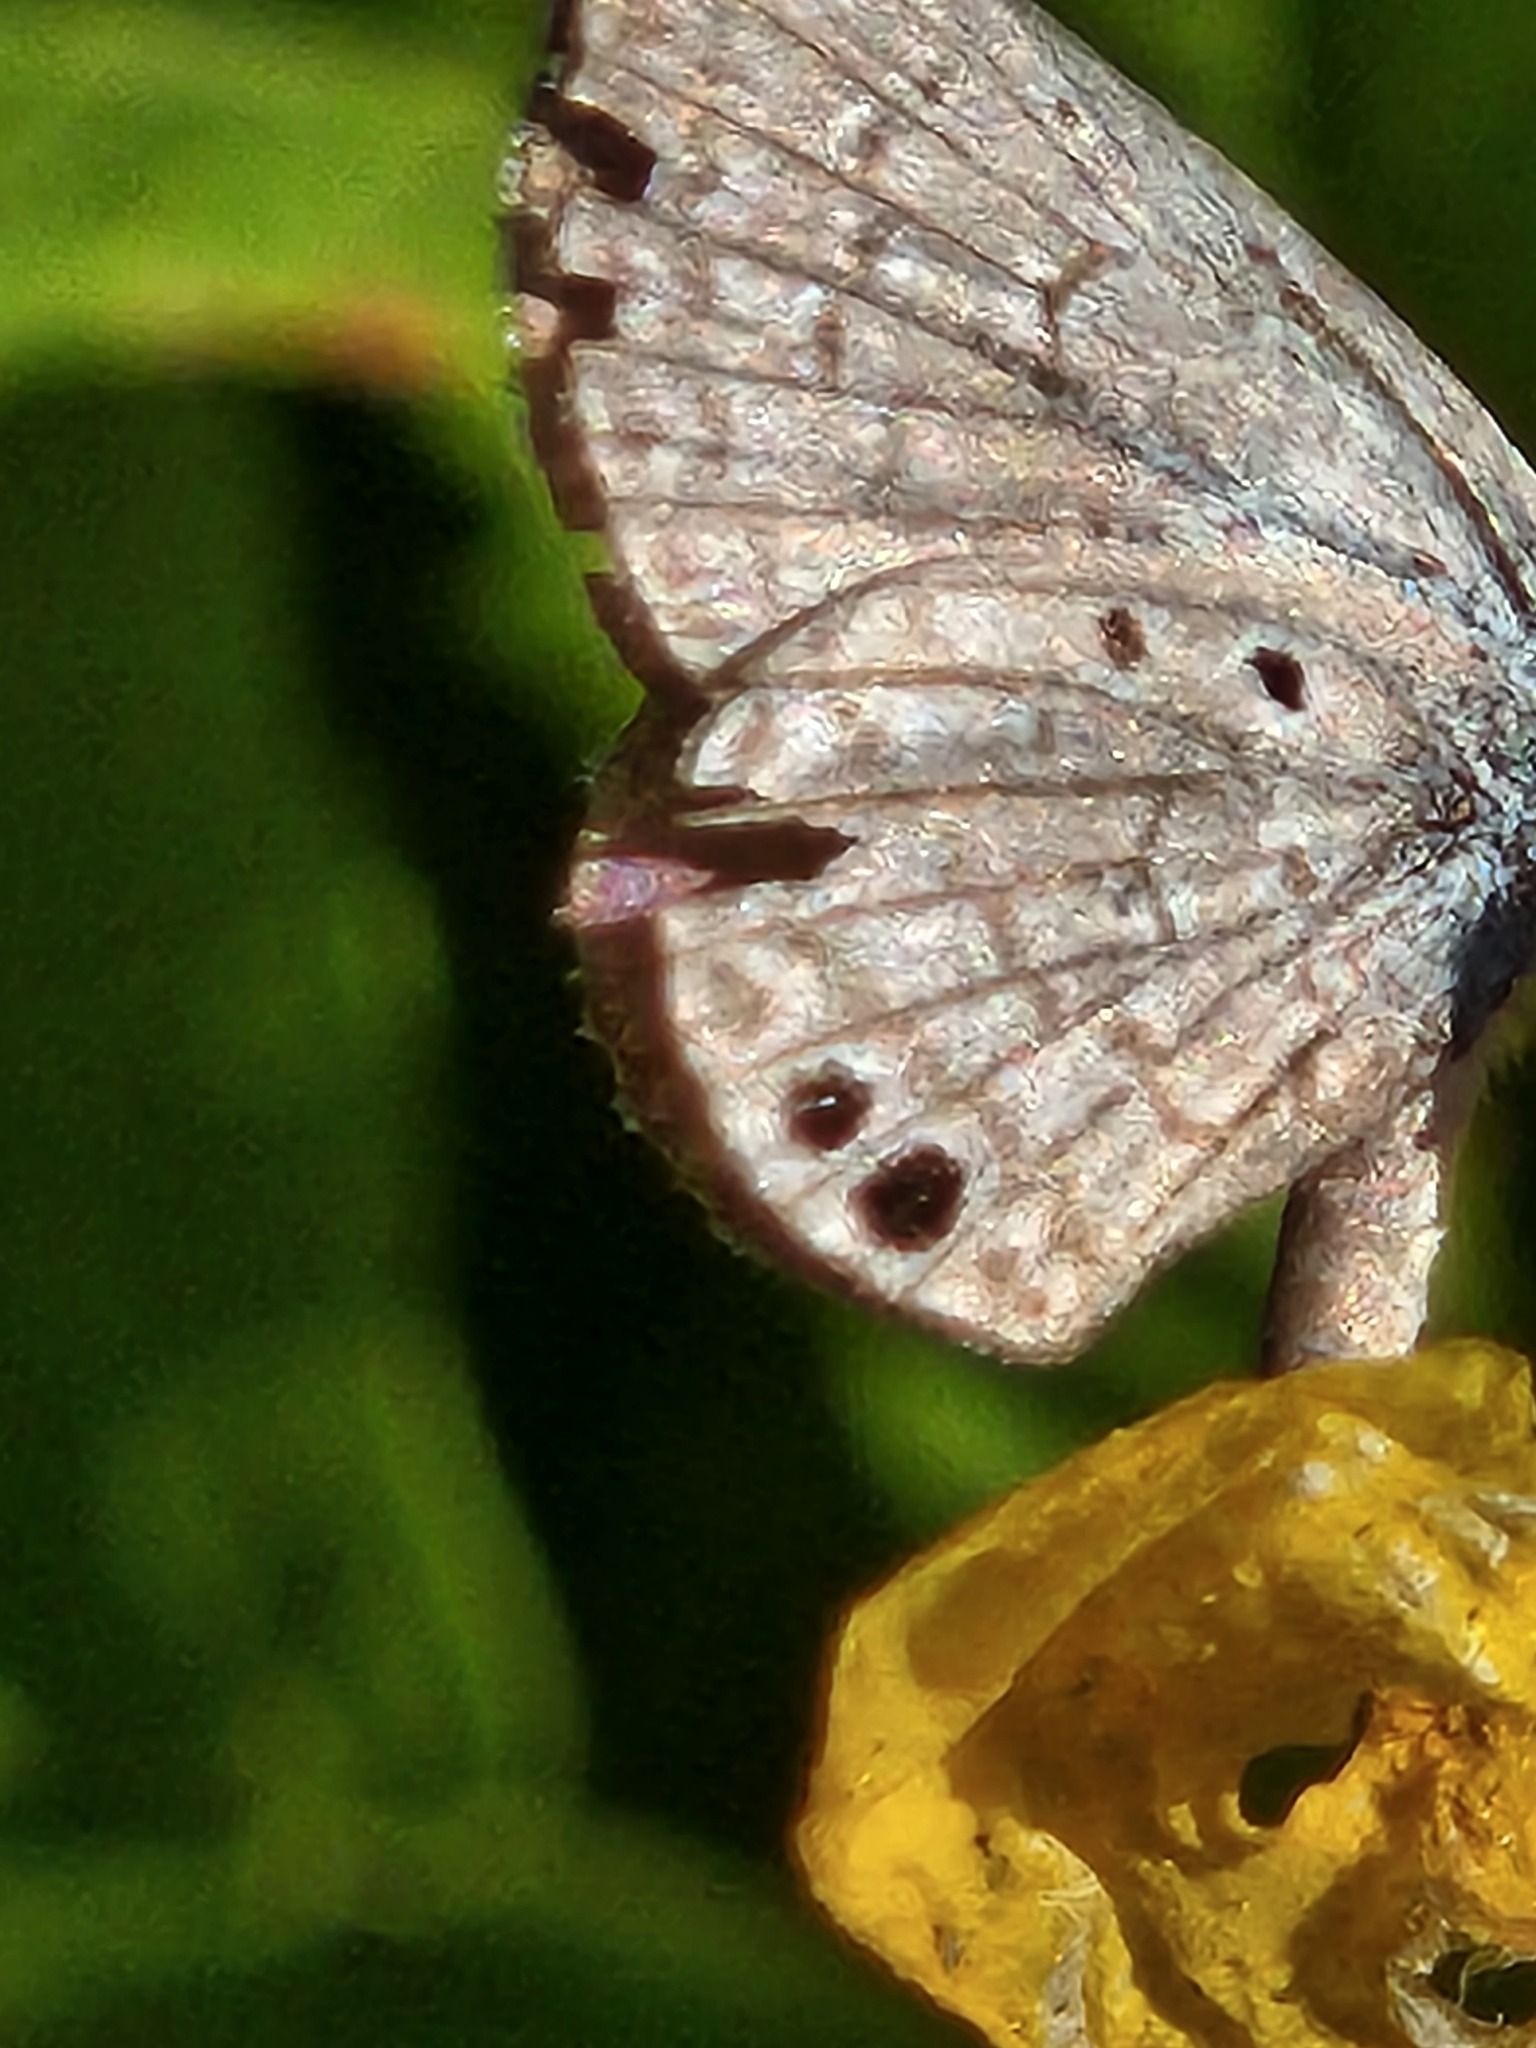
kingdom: Animalia
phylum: Arthropoda
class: Insecta
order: Lepidoptera
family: Lycaenidae
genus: Hemiargus
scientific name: Hemiargus ceraunus
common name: Ceraunus blue
